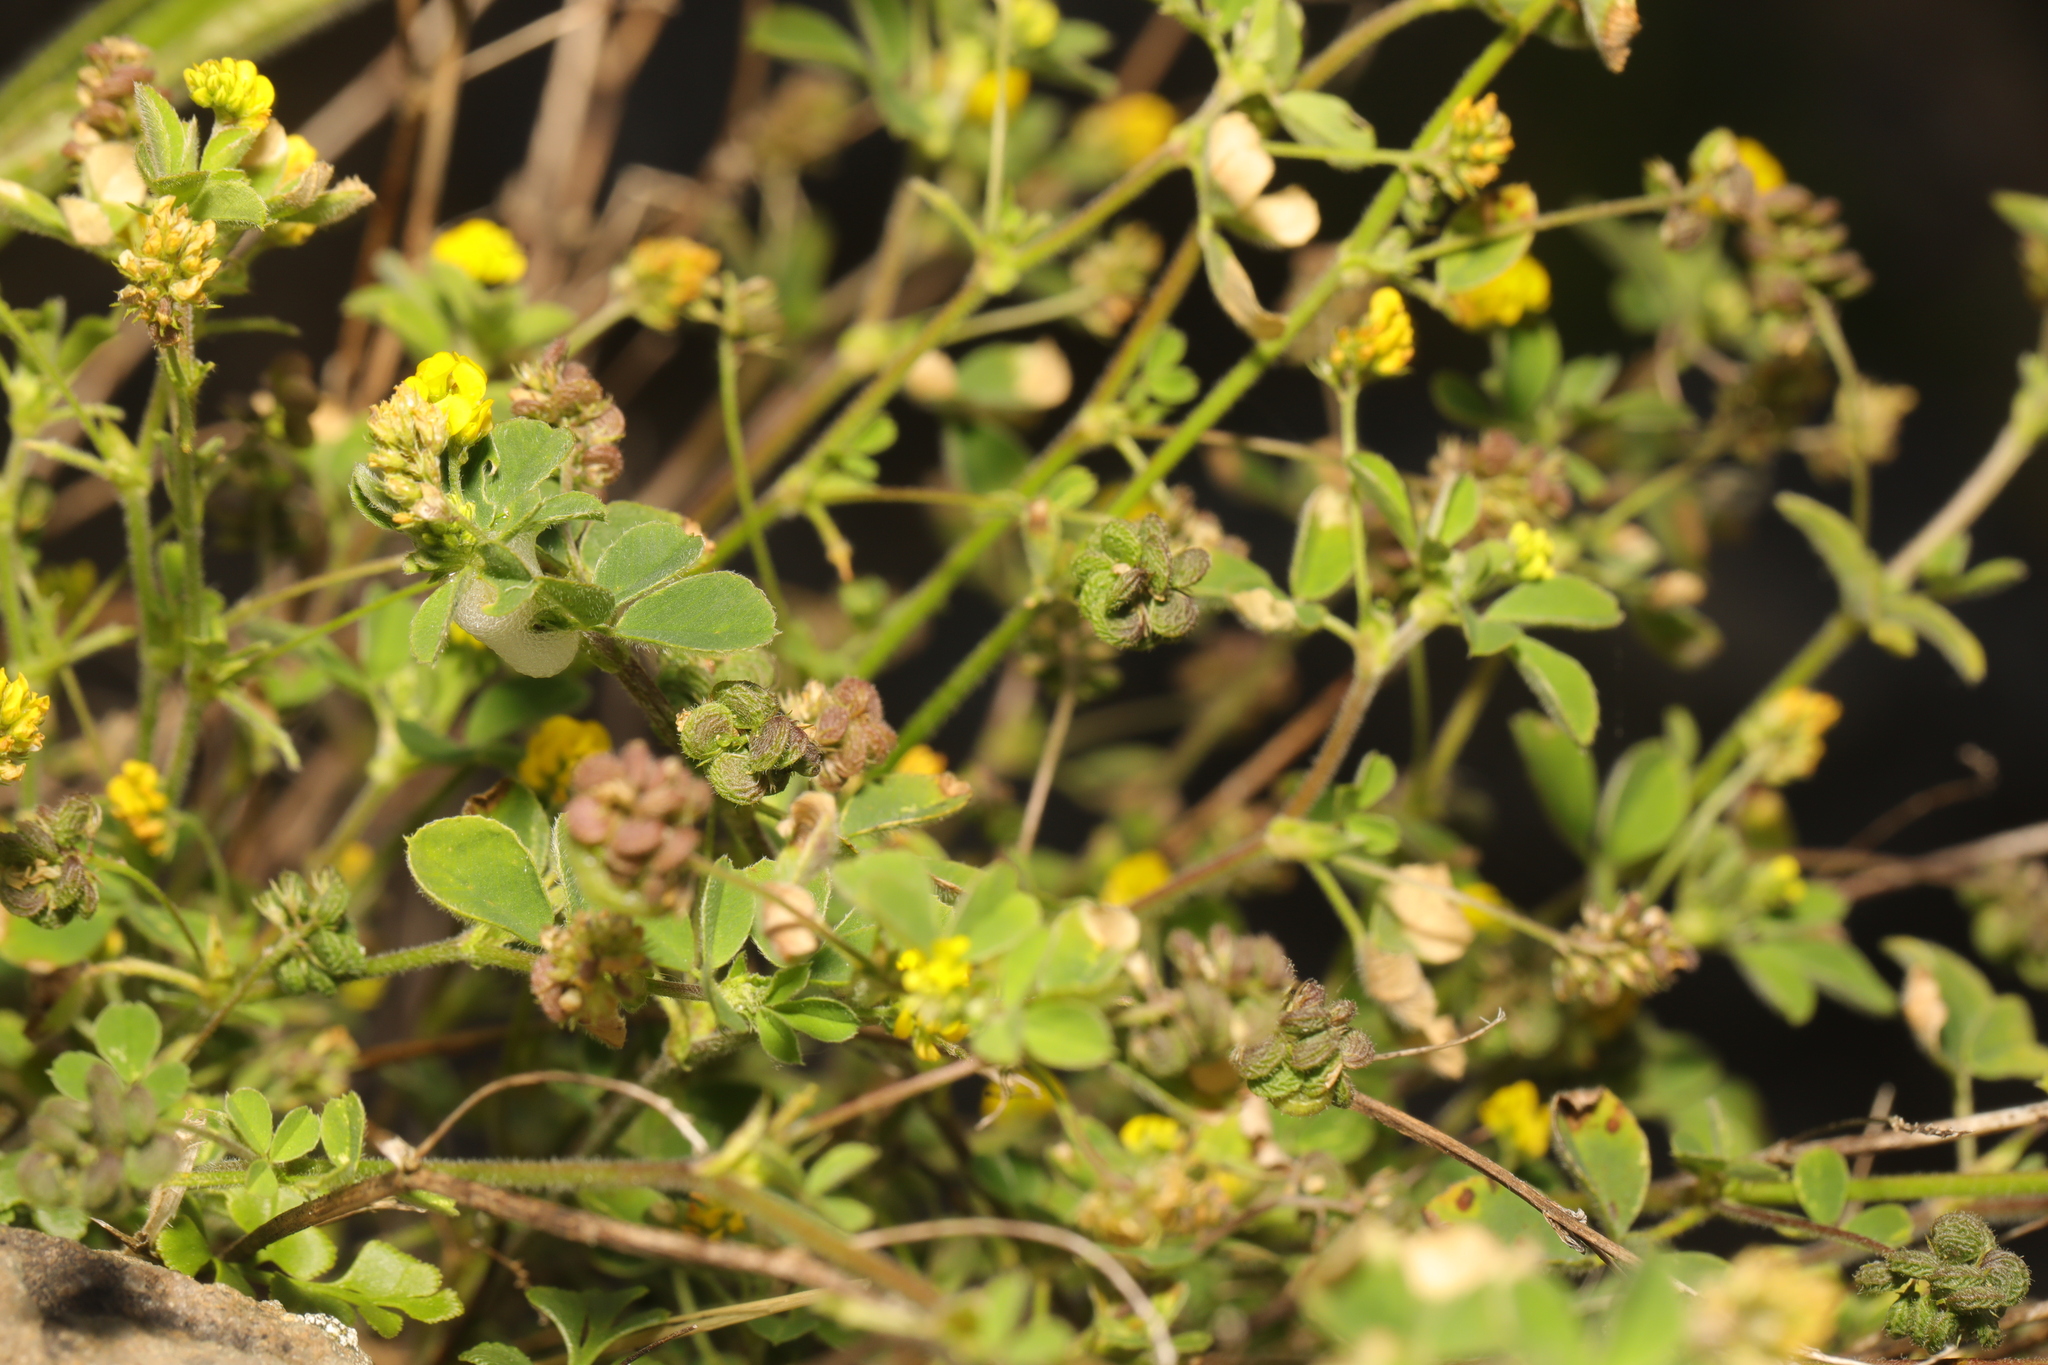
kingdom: Plantae
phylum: Tracheophyta
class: Magnoliopsida
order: Fabales
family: Fabaceae
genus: Medicago
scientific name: Medicago lupulina
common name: Black medick
